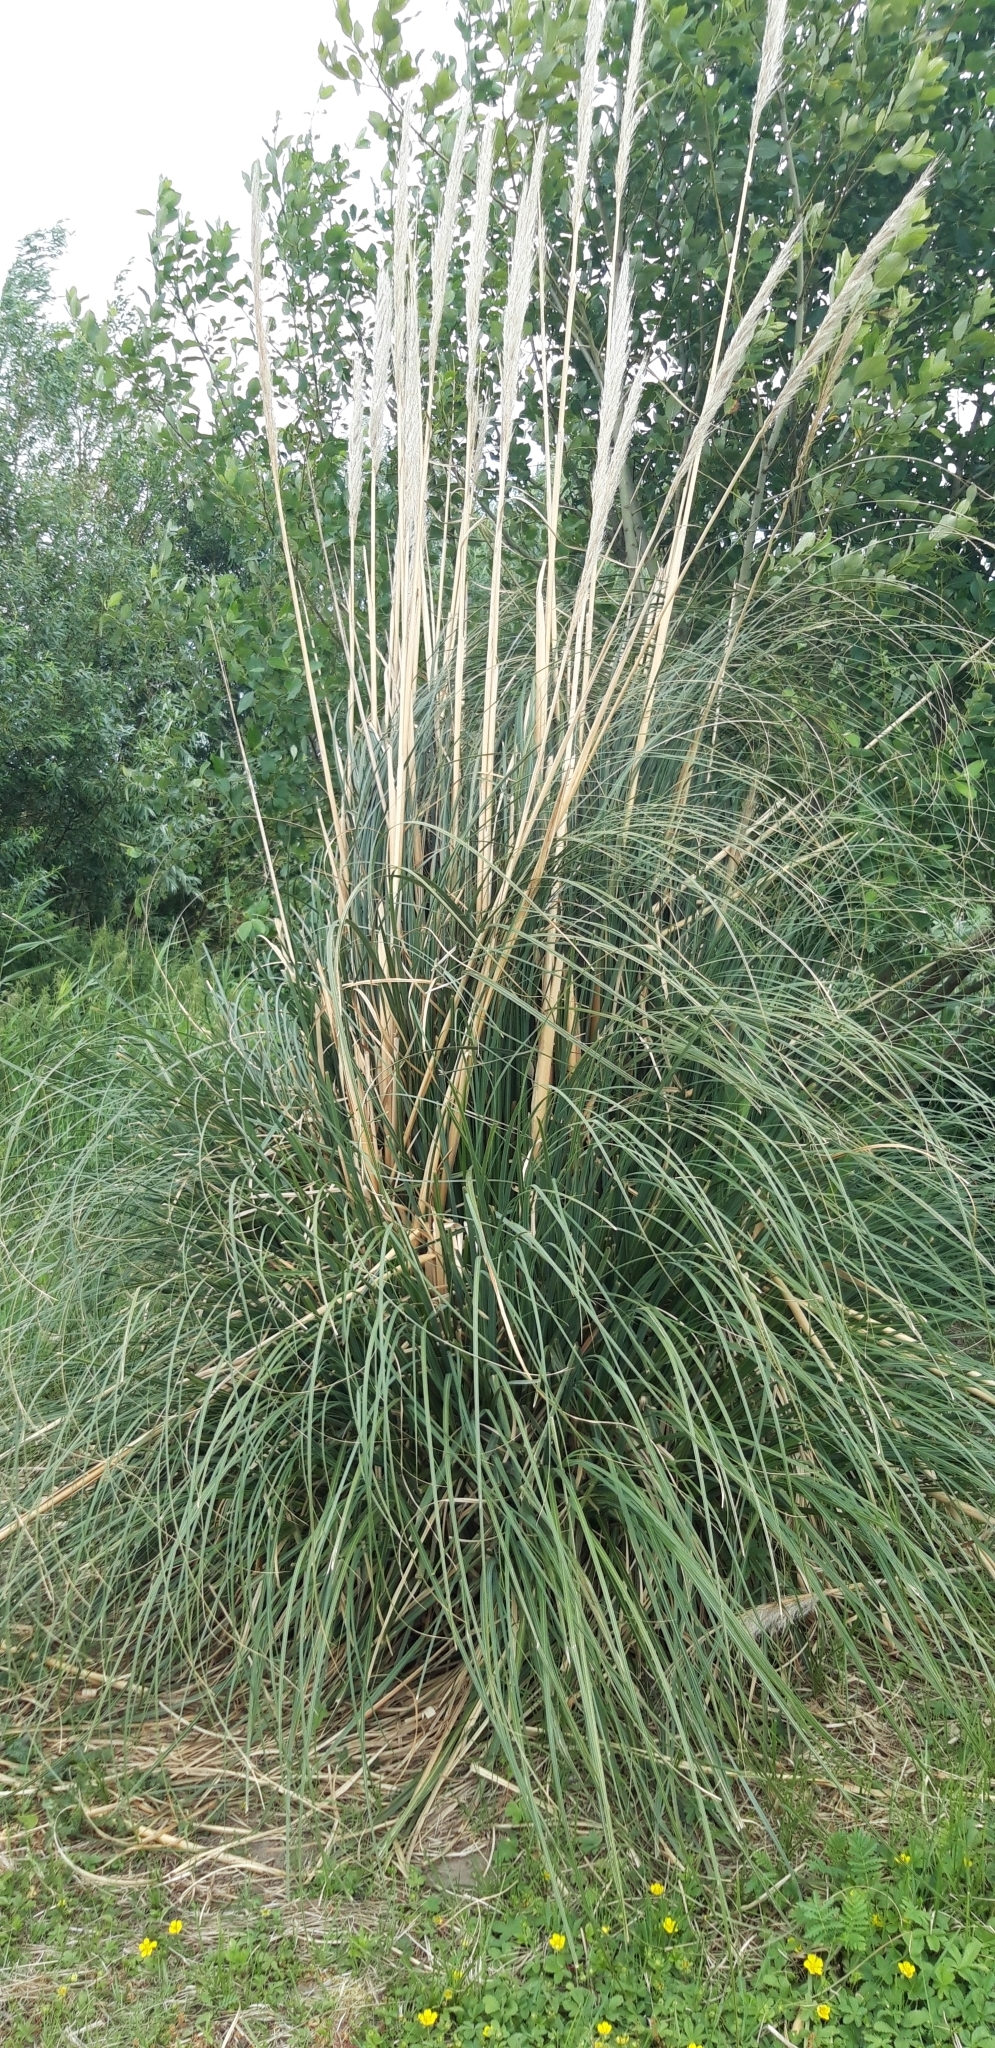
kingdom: Plantae
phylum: Tracheophyta
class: Liliopsida
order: Poales
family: Poaceae
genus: Cortaderia
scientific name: Cortaderia selloana
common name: Uruguayan pampas grass
